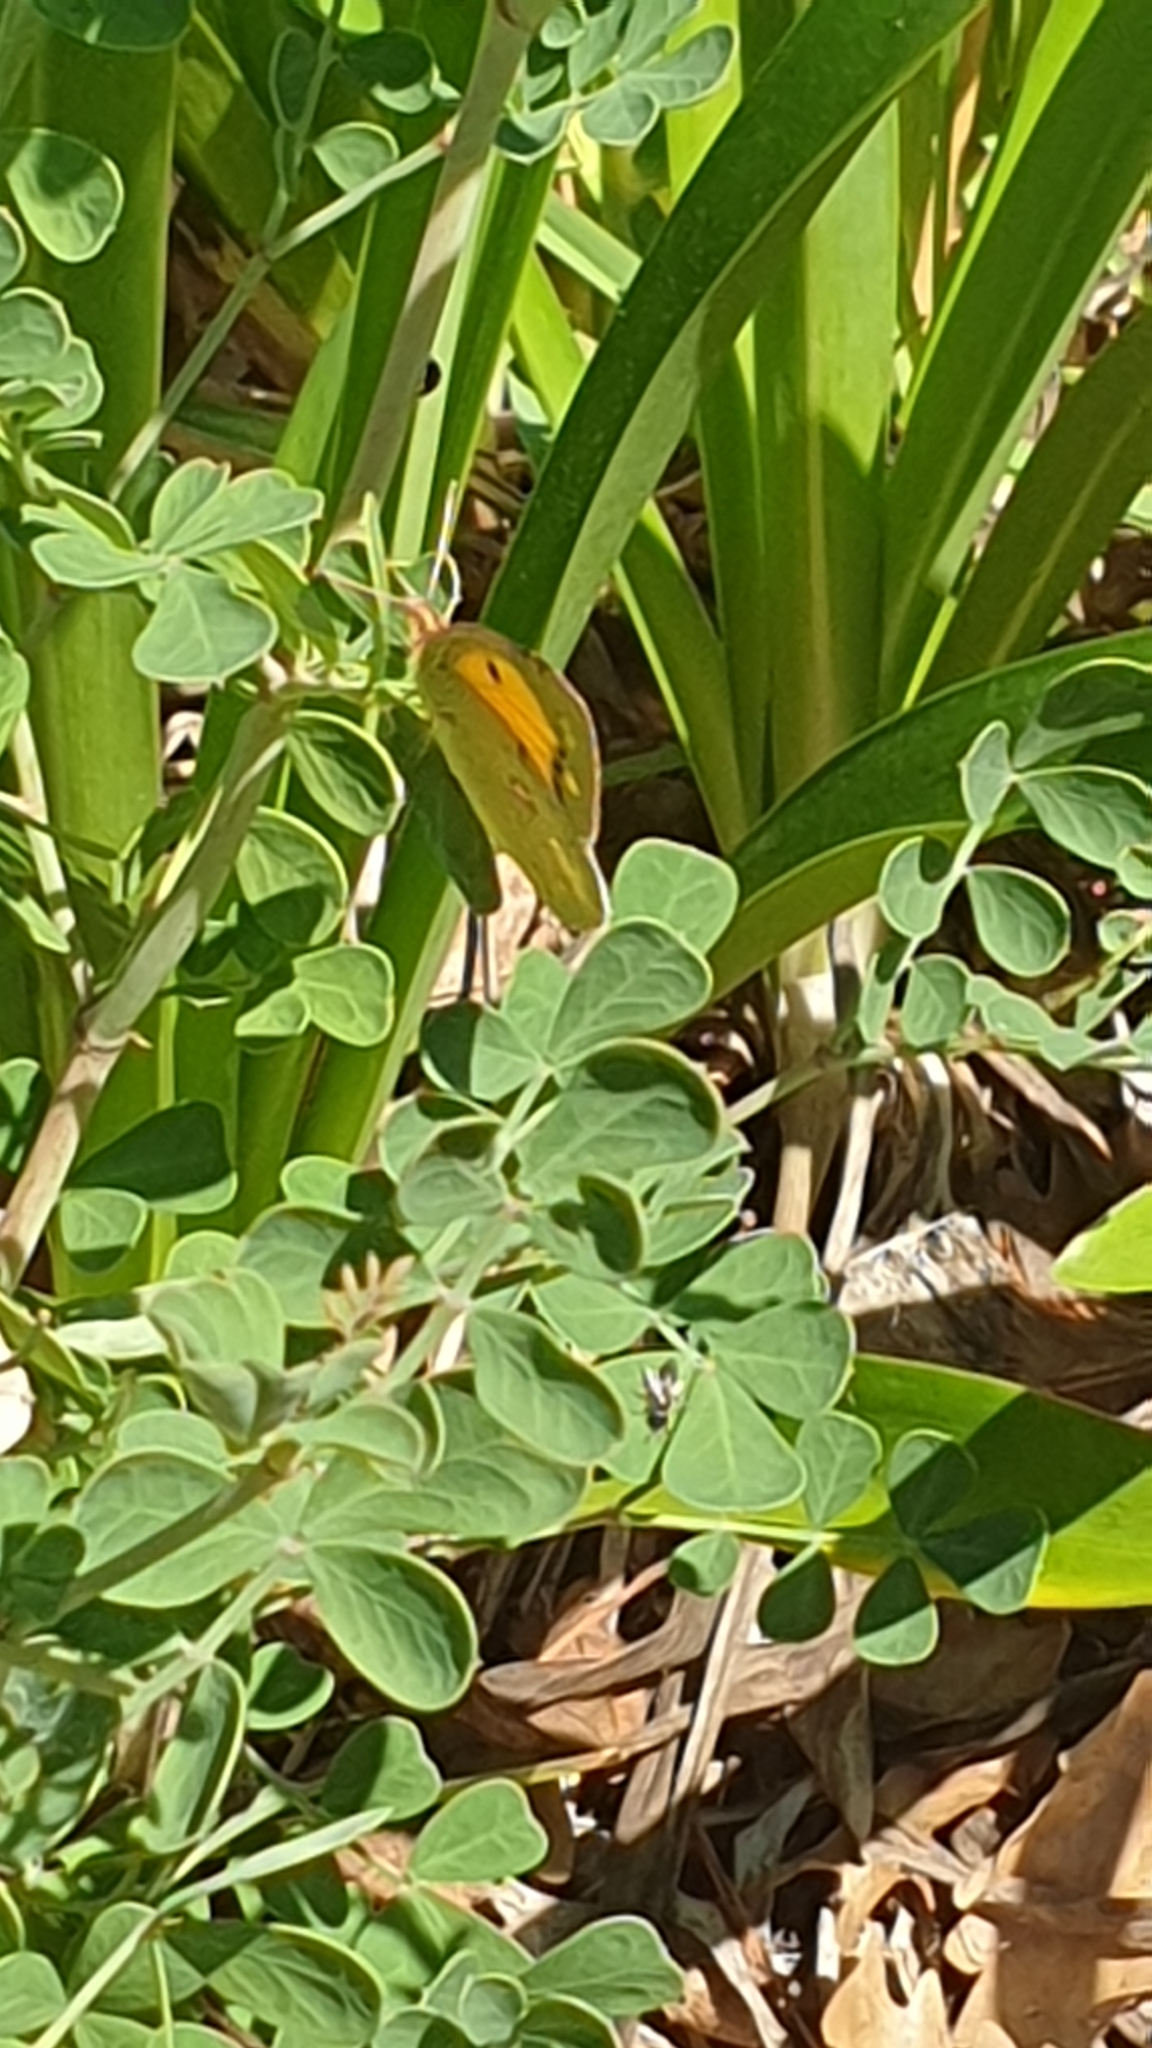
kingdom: Animalia
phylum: Arthropoda
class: Insecta
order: Lepidoptera
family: Pieridae
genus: Colias
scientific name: Colias croceus
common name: Clouded yellow
